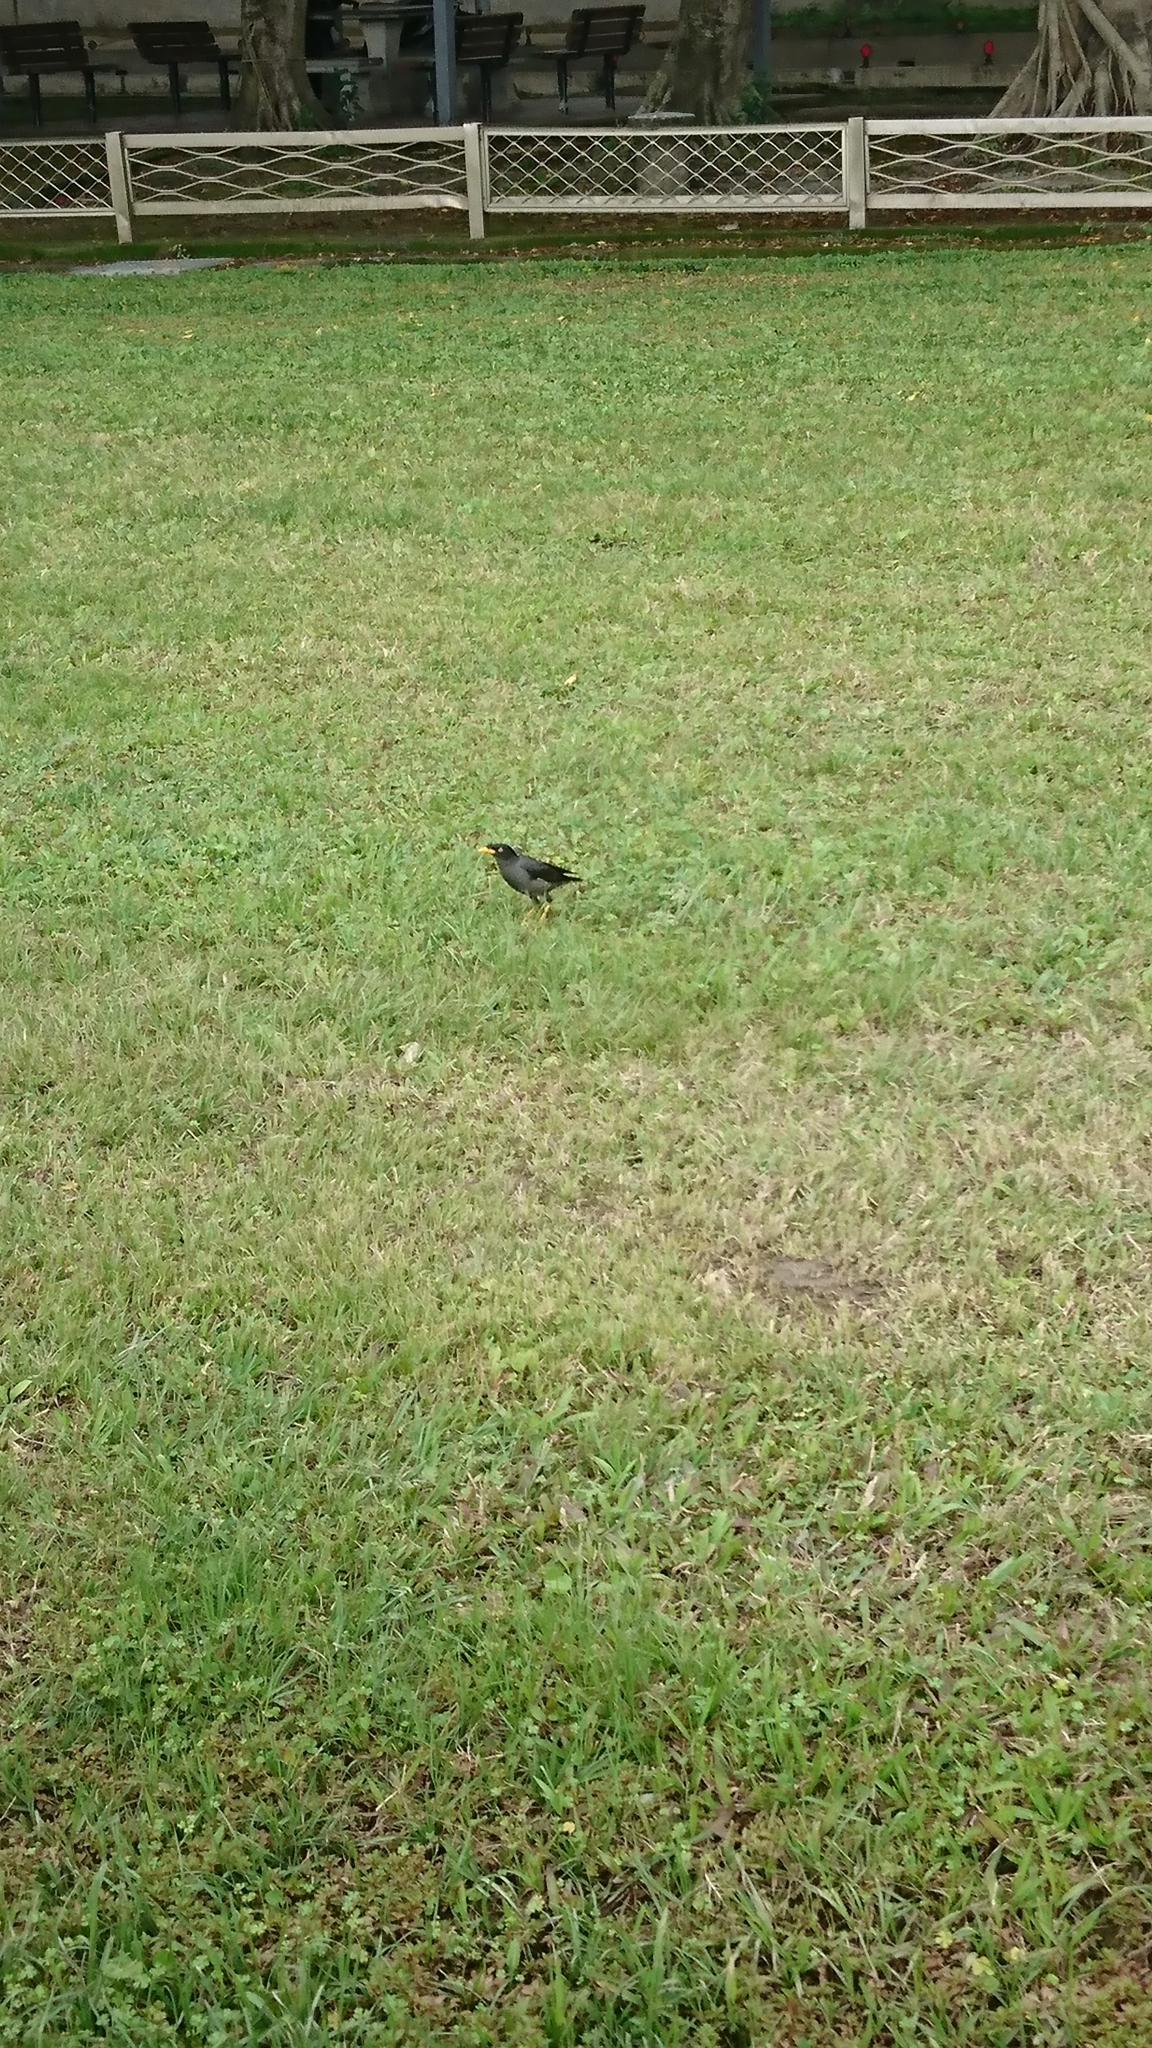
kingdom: Animalia
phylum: Chordata
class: Aves
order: Passeriformes
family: Sturnidae
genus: Acridotheres
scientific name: Acridotheres cristatellus
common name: Crested myna
